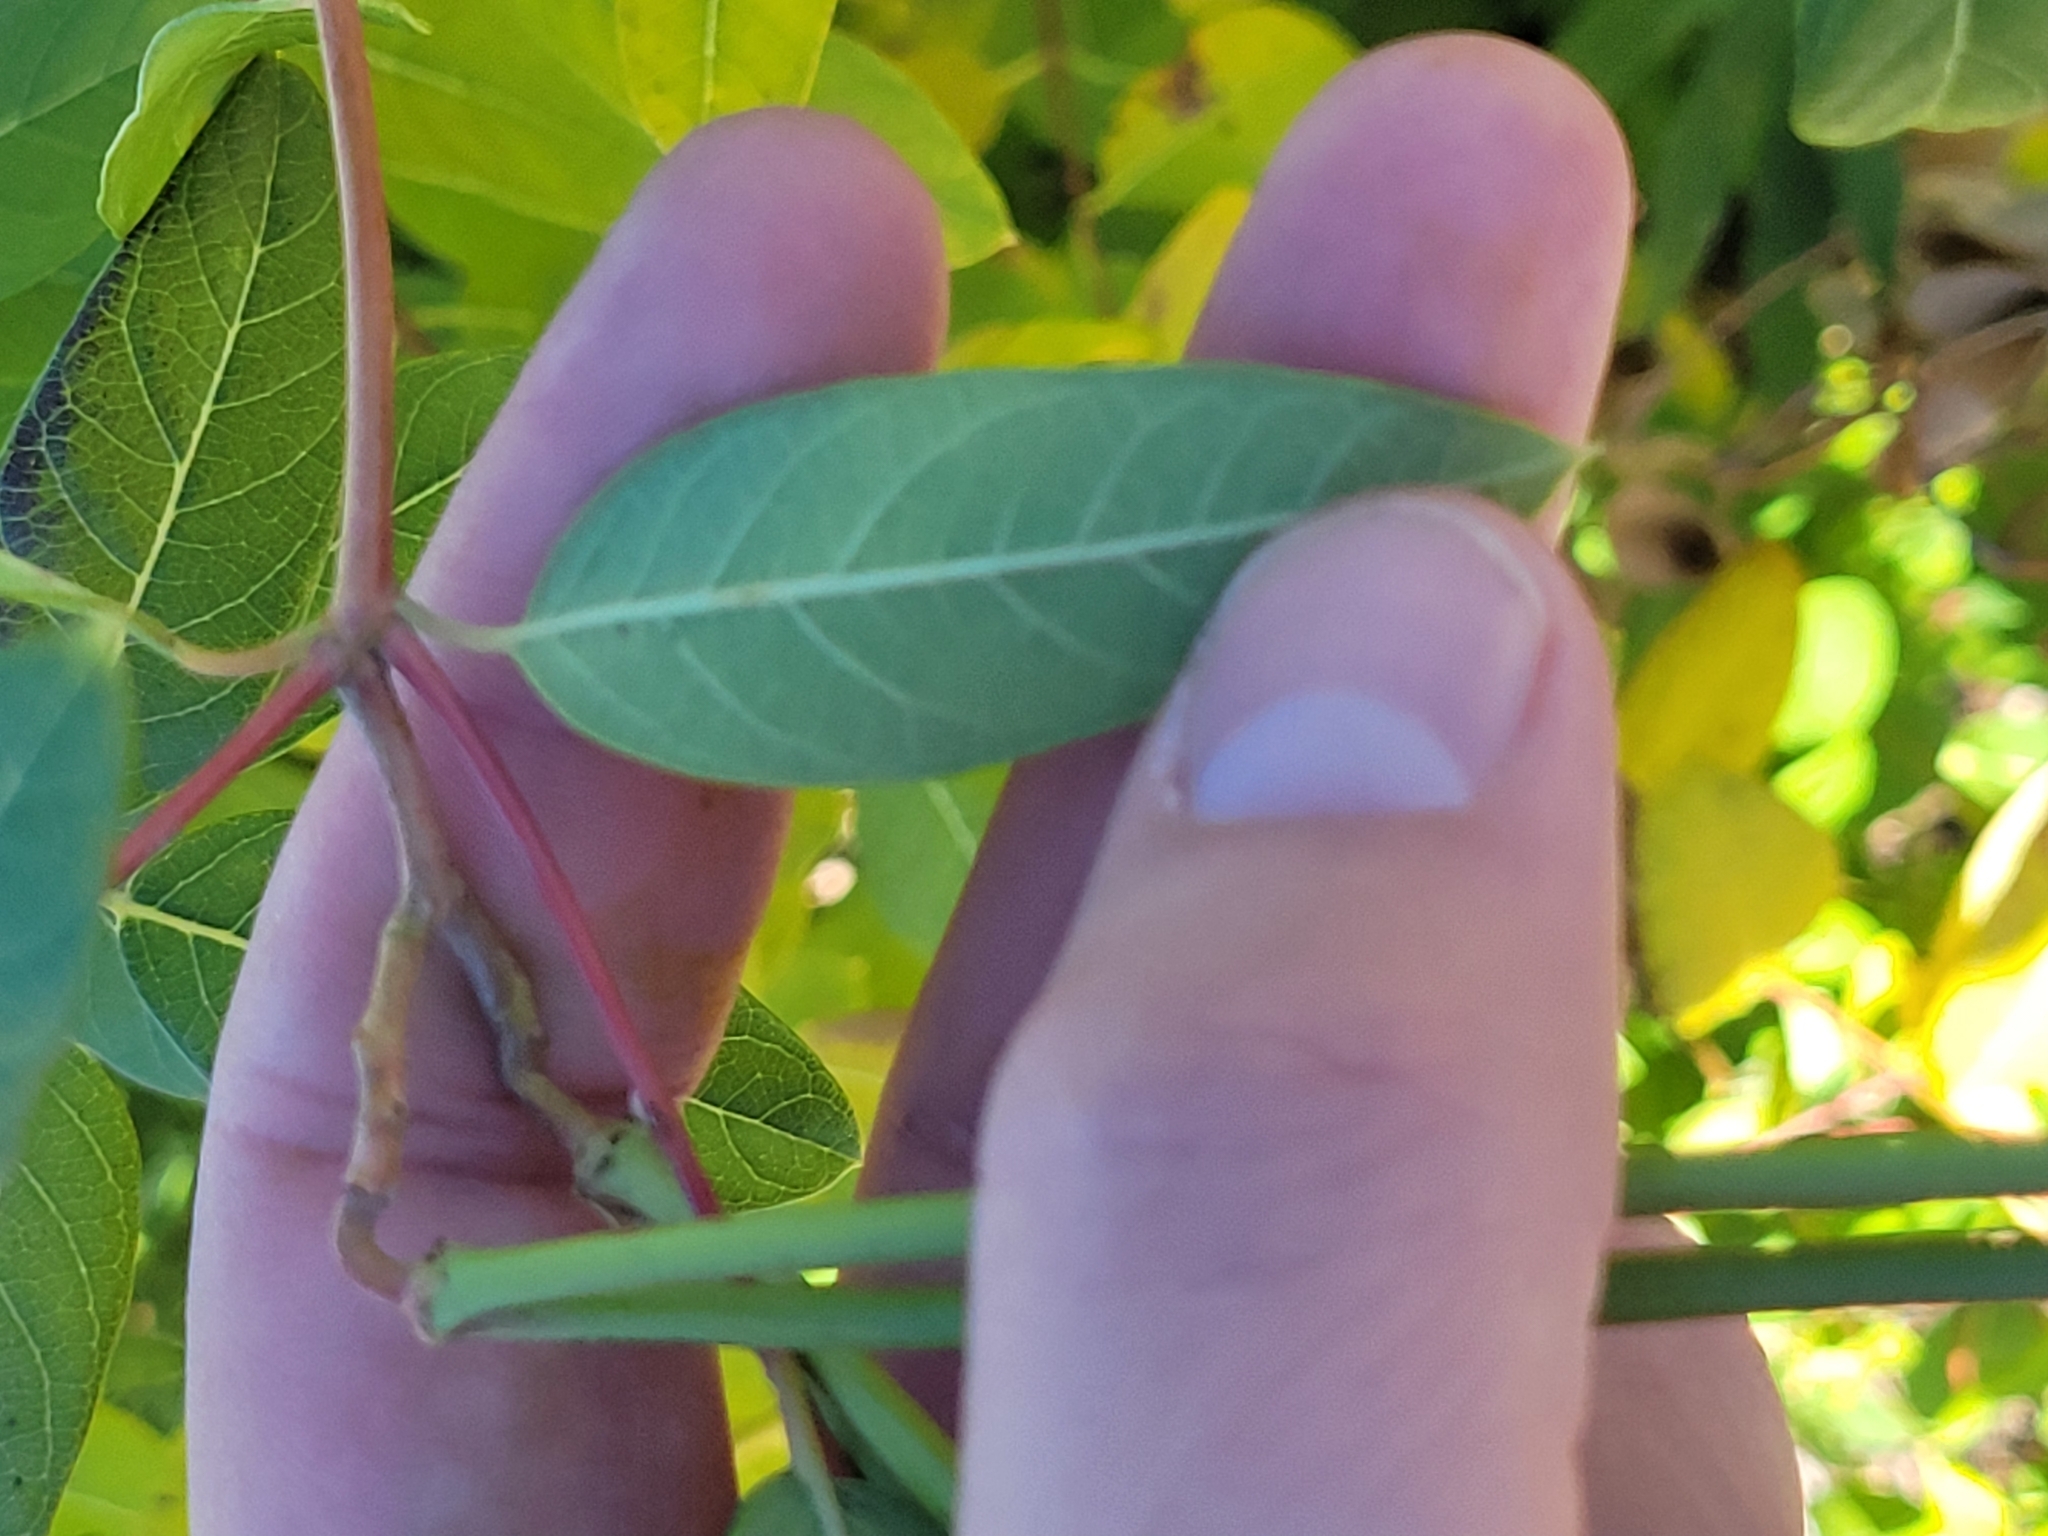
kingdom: Plantae
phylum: Tracheophyta
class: Magnoliopsida
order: Gentianales
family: Apocynaceae
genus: Apocynum
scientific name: Apocynum cannabinum
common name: Hemp dogbane
